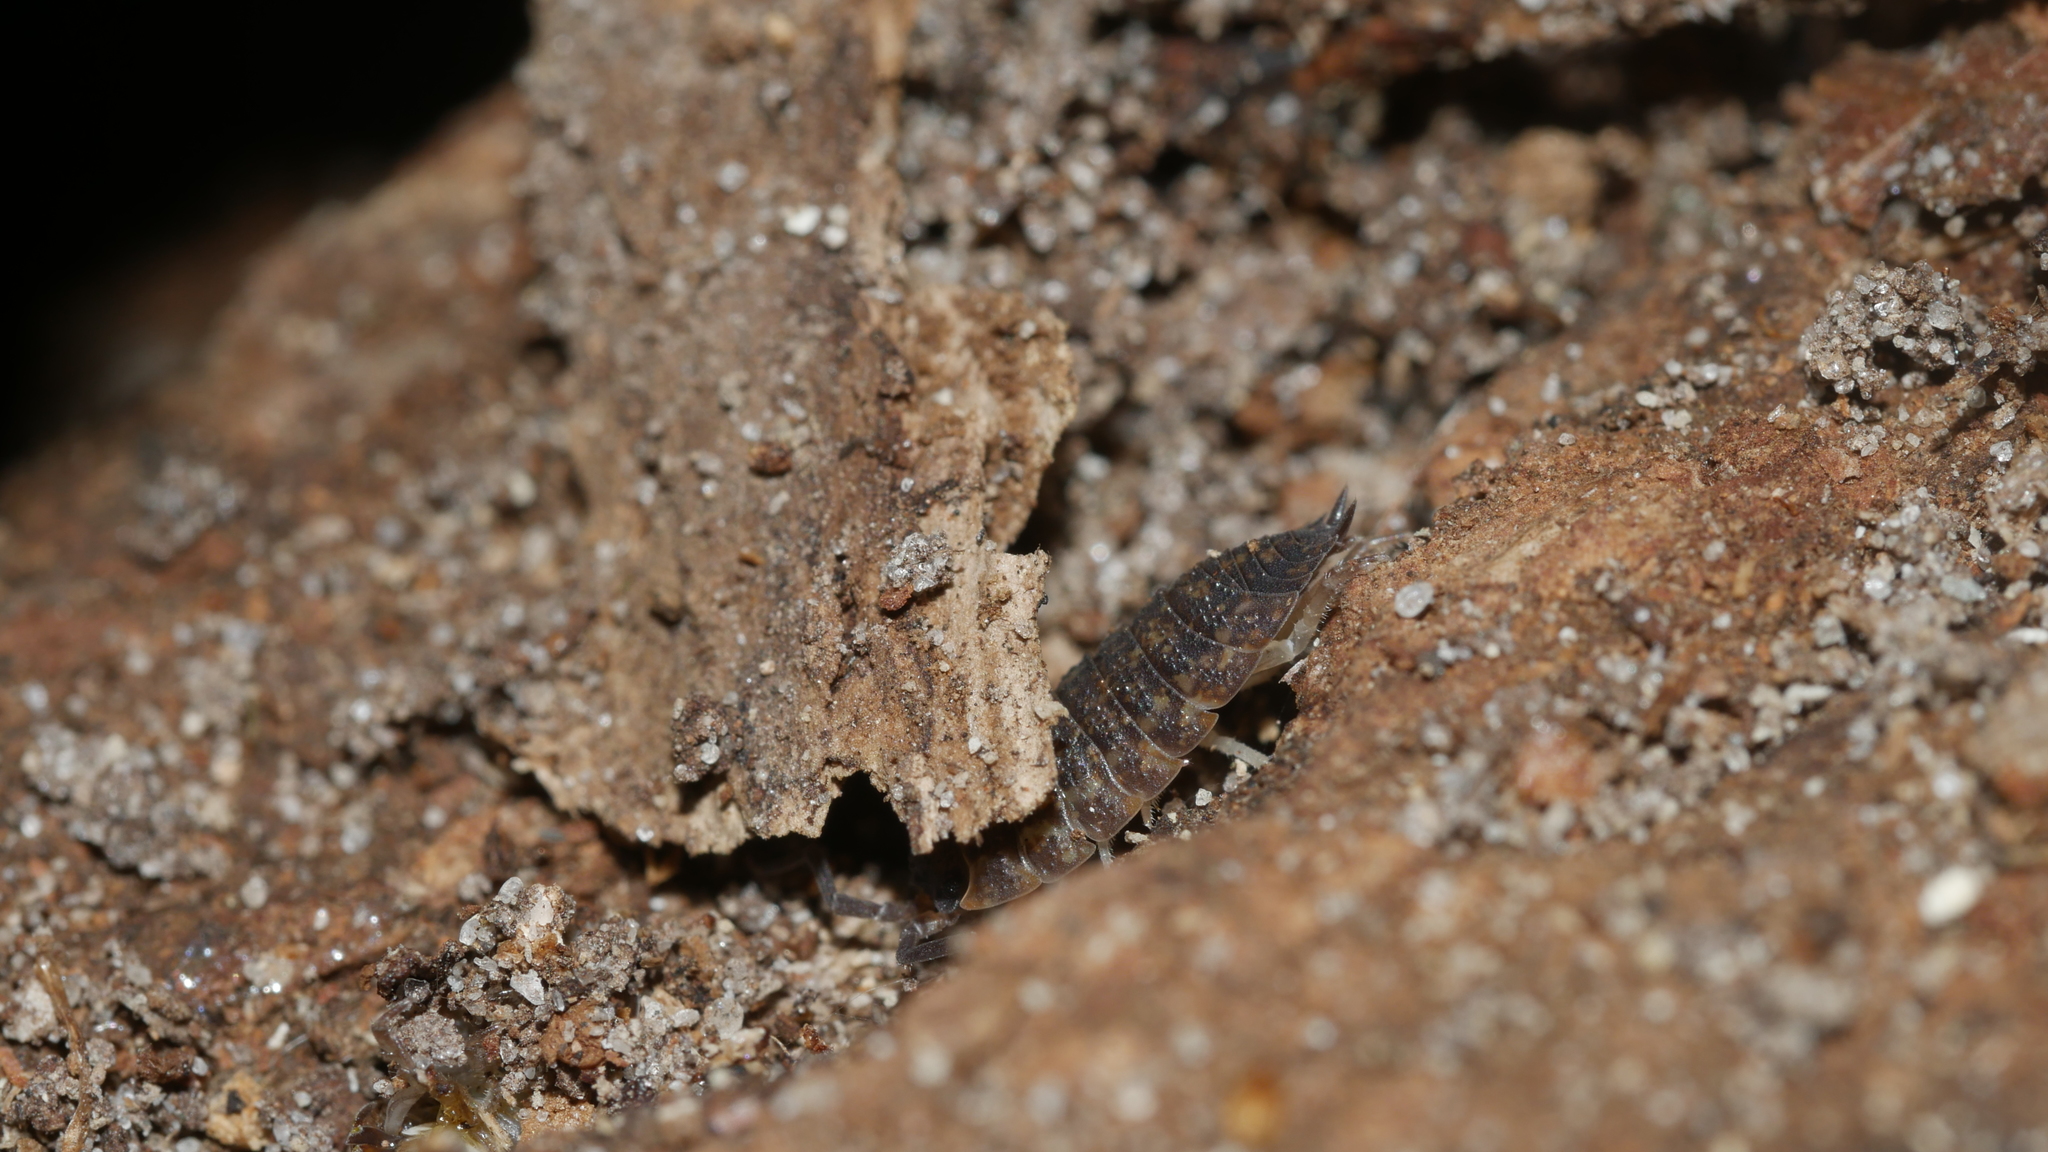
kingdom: Animalia
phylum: Arthropoda
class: Malacostraca
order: Isopoda
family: Porcellionidae
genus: Porcellio
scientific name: Porcellio scaber
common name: Common rough woodlouse
